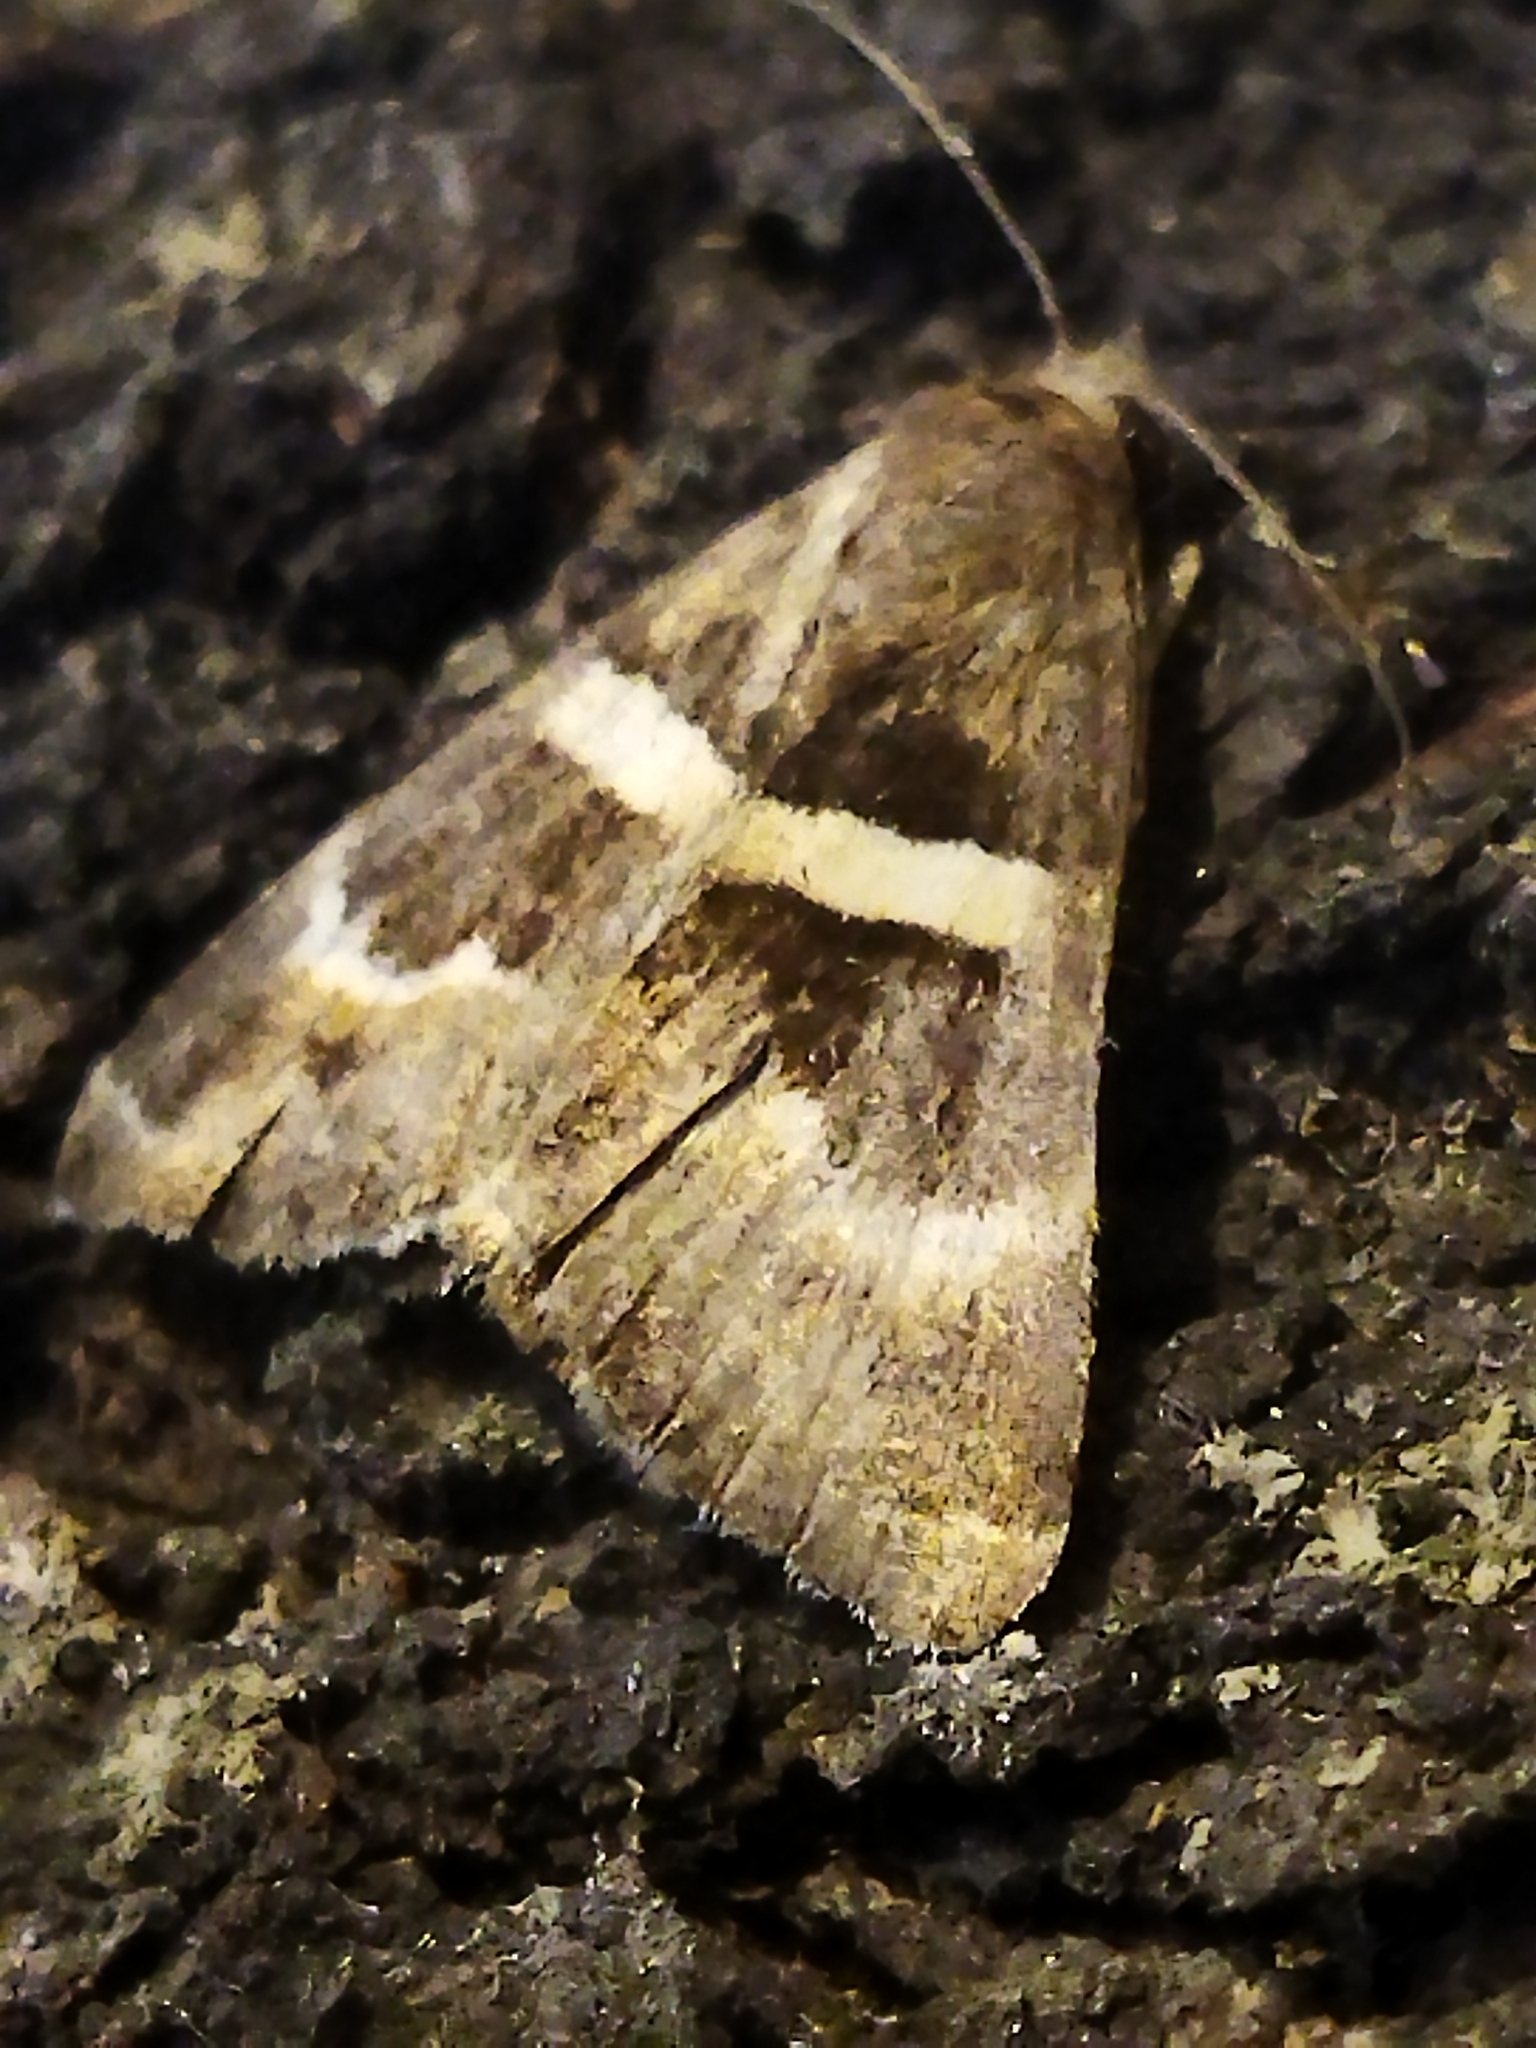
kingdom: Animalia
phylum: Arthropoda
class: Insecta
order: Lepidoptera
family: Erebidae
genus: Grammodes
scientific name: Grammodes stolida
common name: Geometrician
